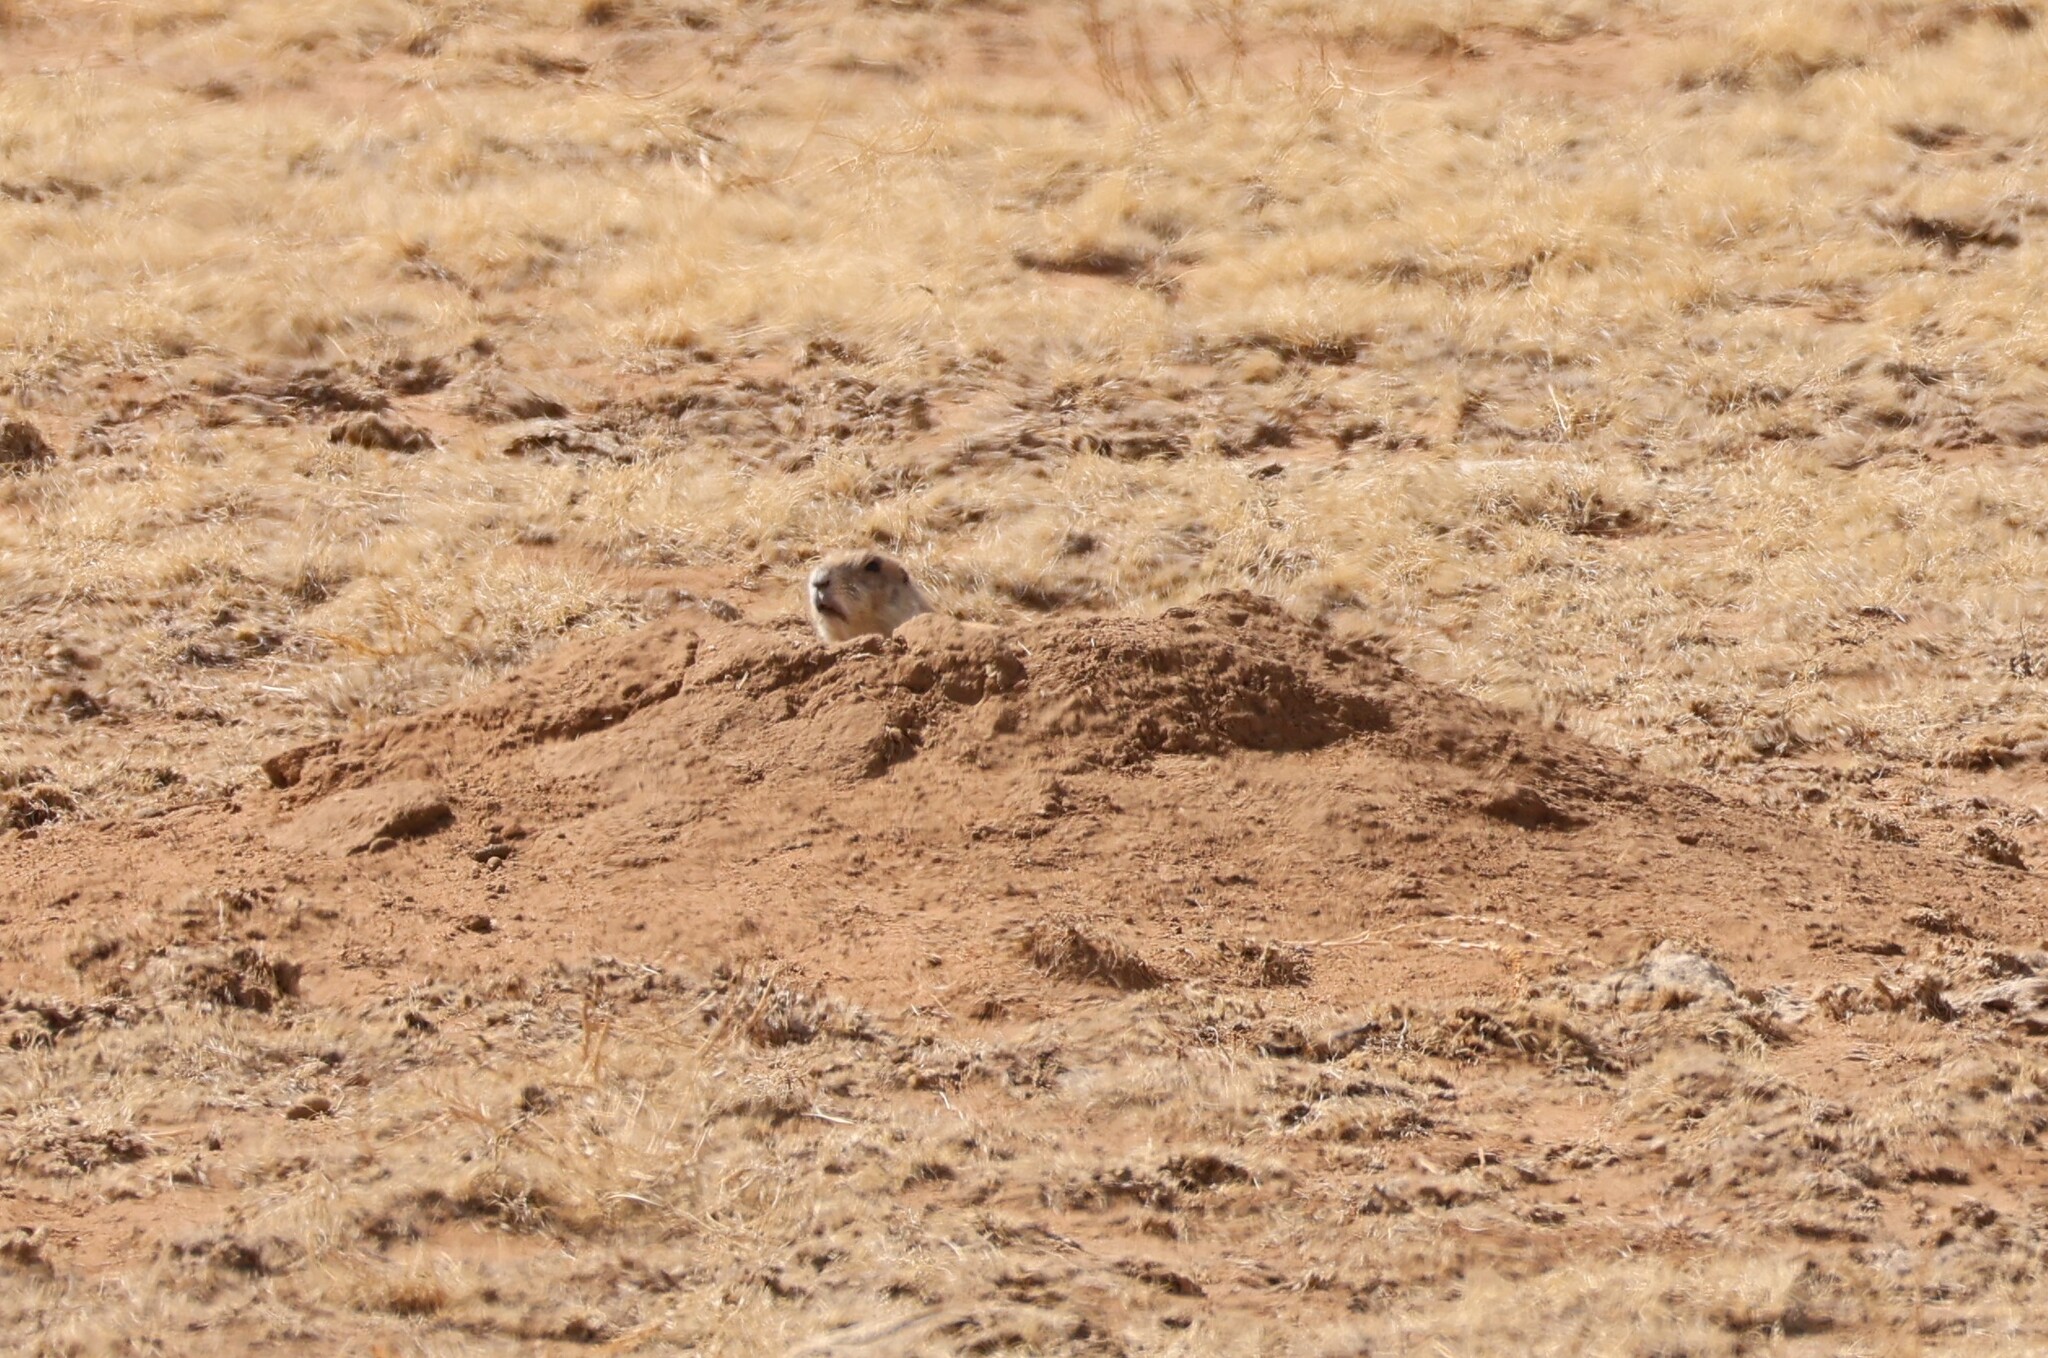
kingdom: Animalia
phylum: Chordata
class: Mammalia
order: Rodentia
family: Sciuridae
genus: Cynomys
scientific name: Cynomys ludovicianus
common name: Black-tailed prairie dog
